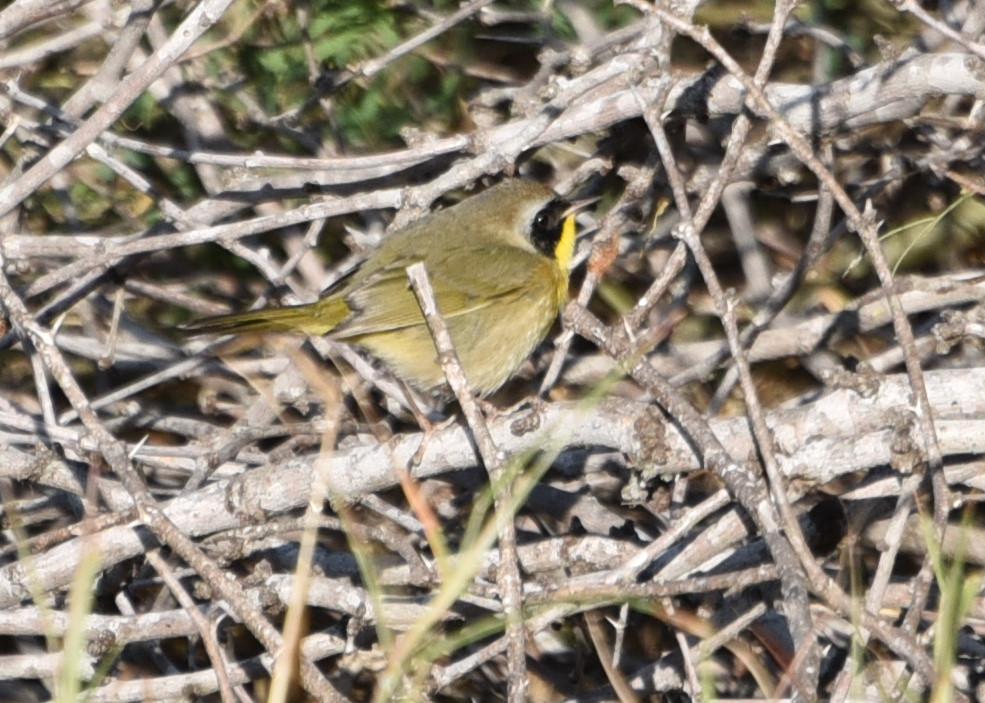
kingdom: Animalia
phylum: Chordata
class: Aves
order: Passeriformes
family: Parulidae
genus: Geothlypis
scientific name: Geothlypis trichas
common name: Common yellowthroat
